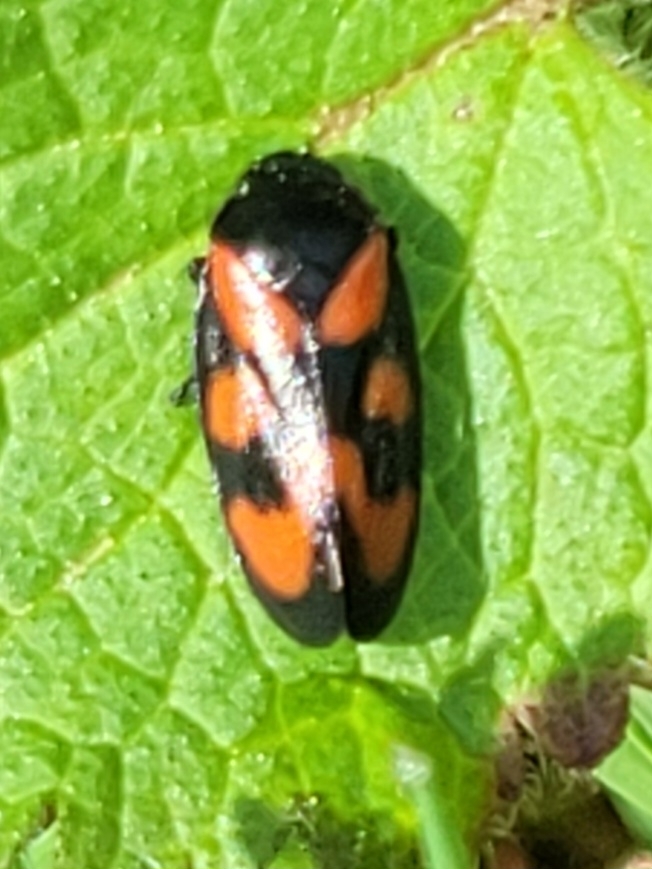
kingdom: Animalia
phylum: Arthropoda
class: Insecta
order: Hemiptera
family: Cercopidae
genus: Cercopis
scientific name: Cercopis vulnerata
